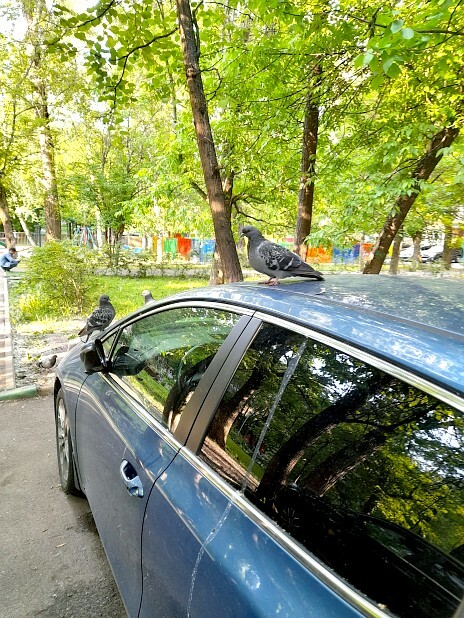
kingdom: Animalia
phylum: Chordata
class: Aves
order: Columbiformes
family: Columbidae
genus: Columba
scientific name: Columba livia
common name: Rock pigeon
